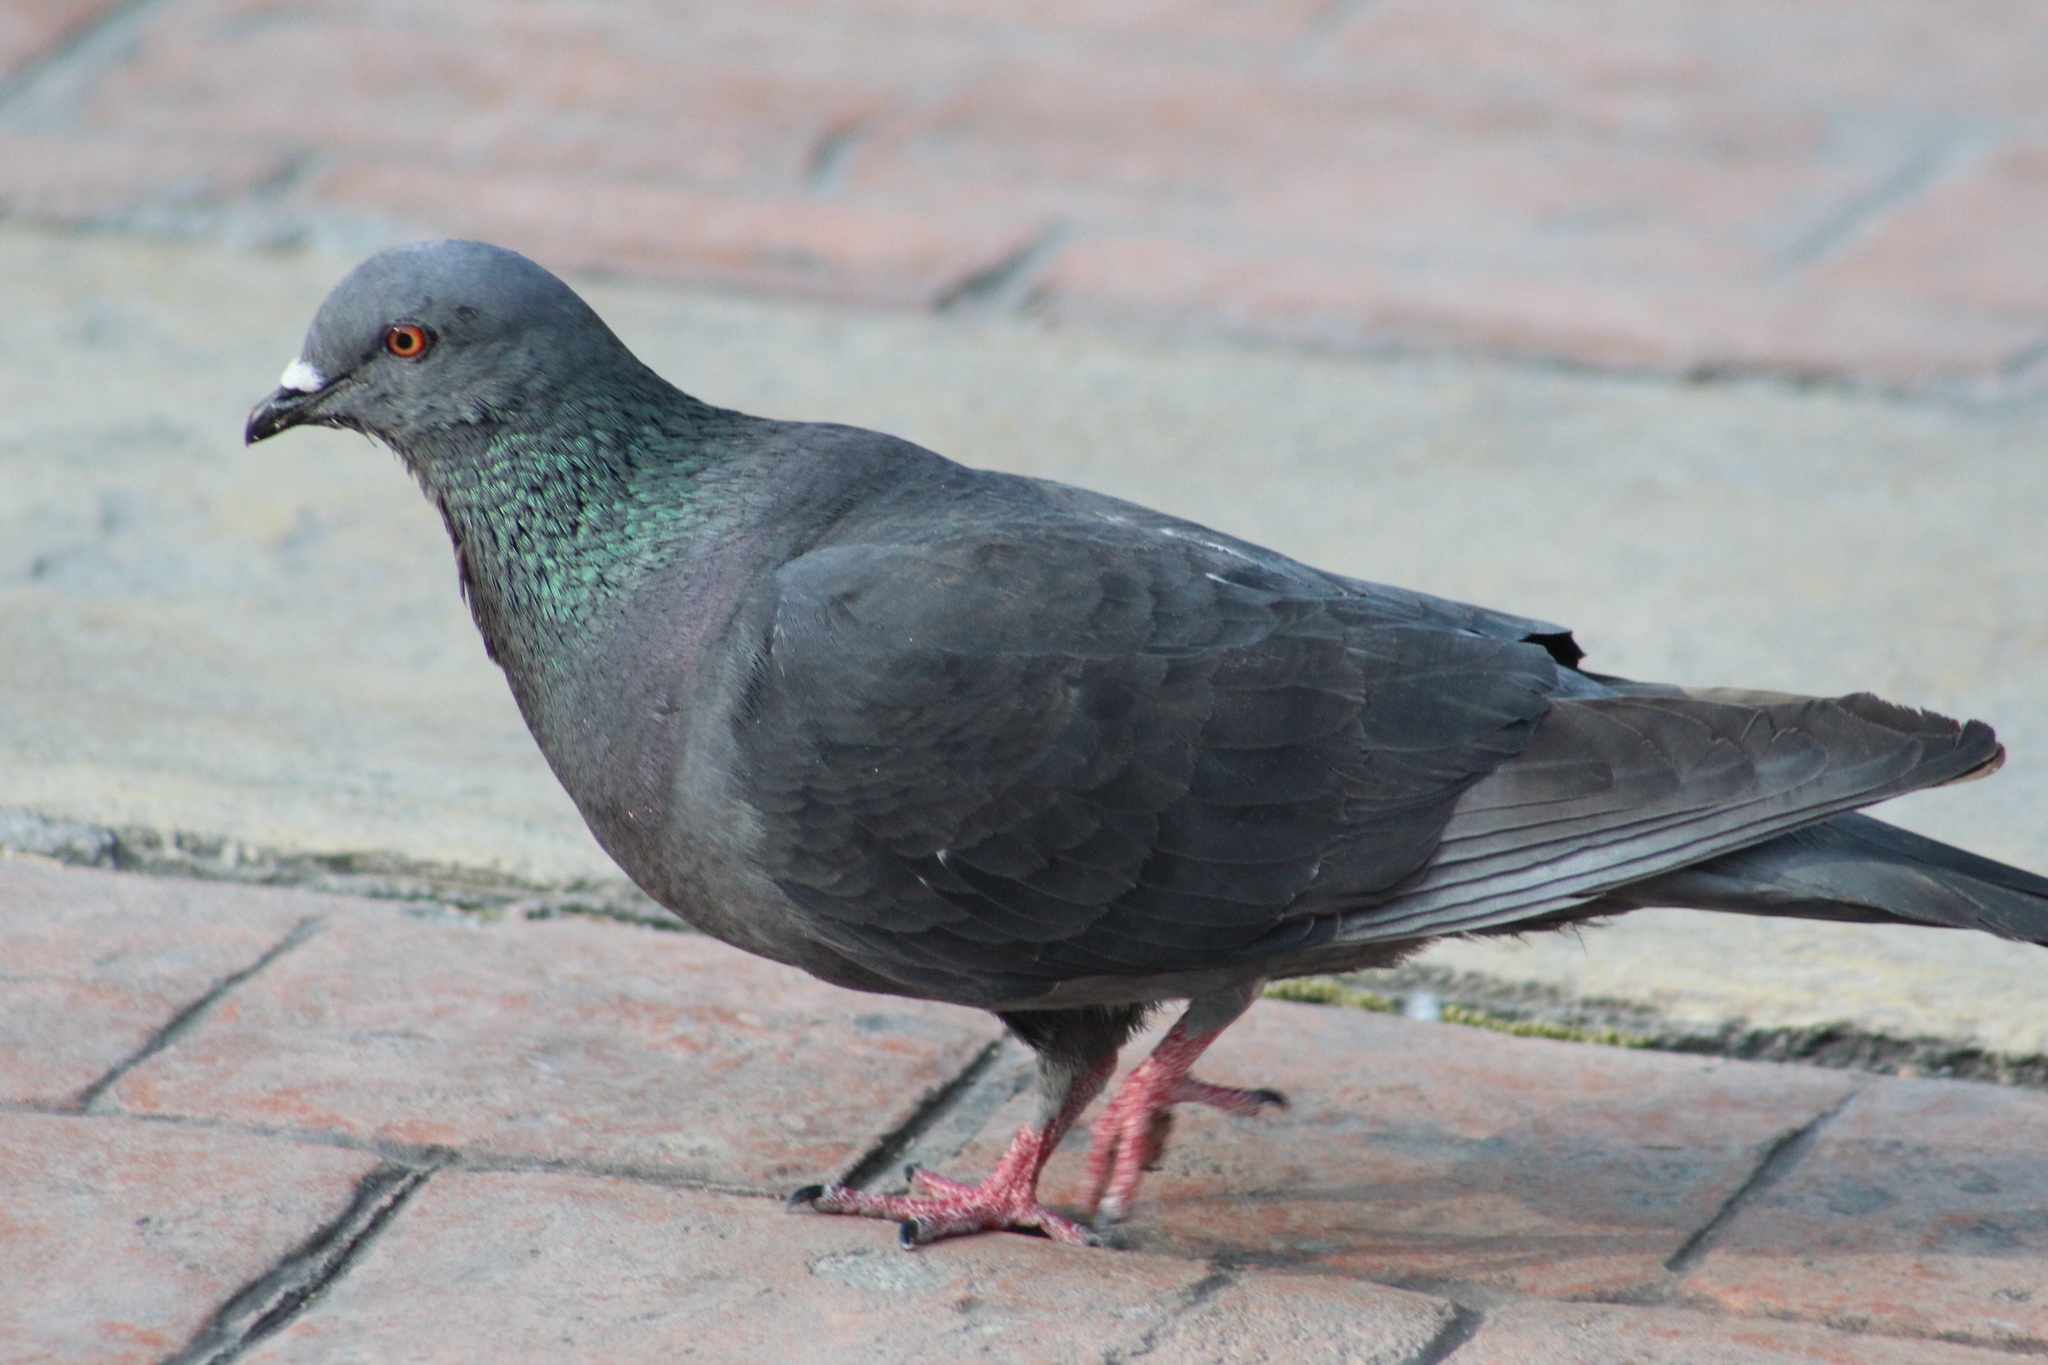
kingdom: Animalia
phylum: Chordata
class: Aves
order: Columbiformes
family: Columbidae
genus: Columba
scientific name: Columba livia
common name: Rock pigeon
